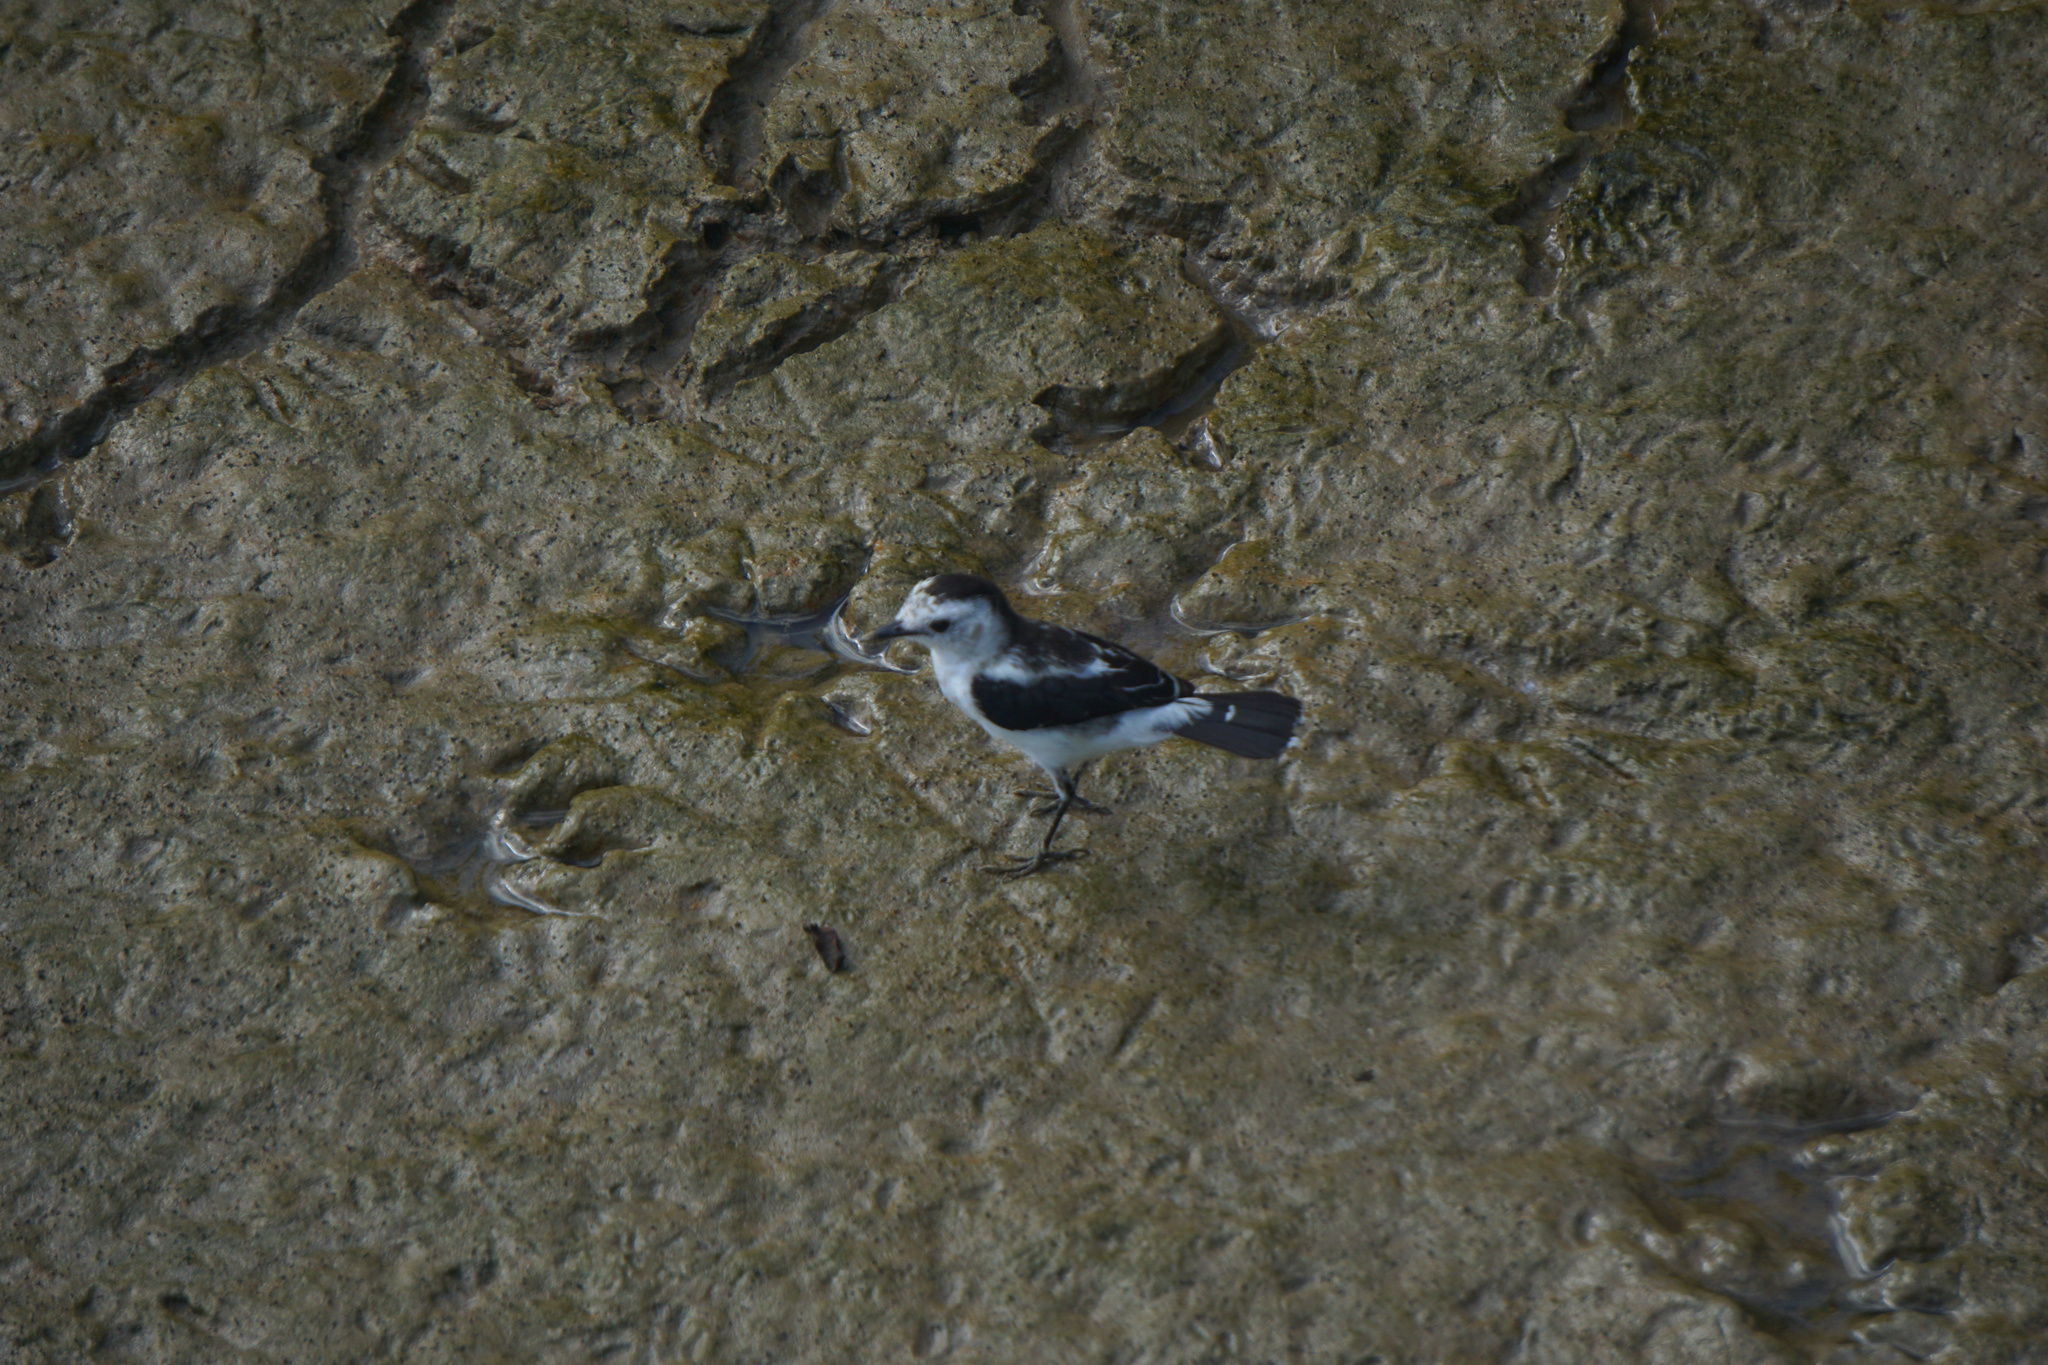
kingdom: Animalia
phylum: Chordata
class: Aves
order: Passeriformes
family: Tyrannidae
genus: Fluvicola
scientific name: Fluvicola pica
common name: Pied water-tyrant
